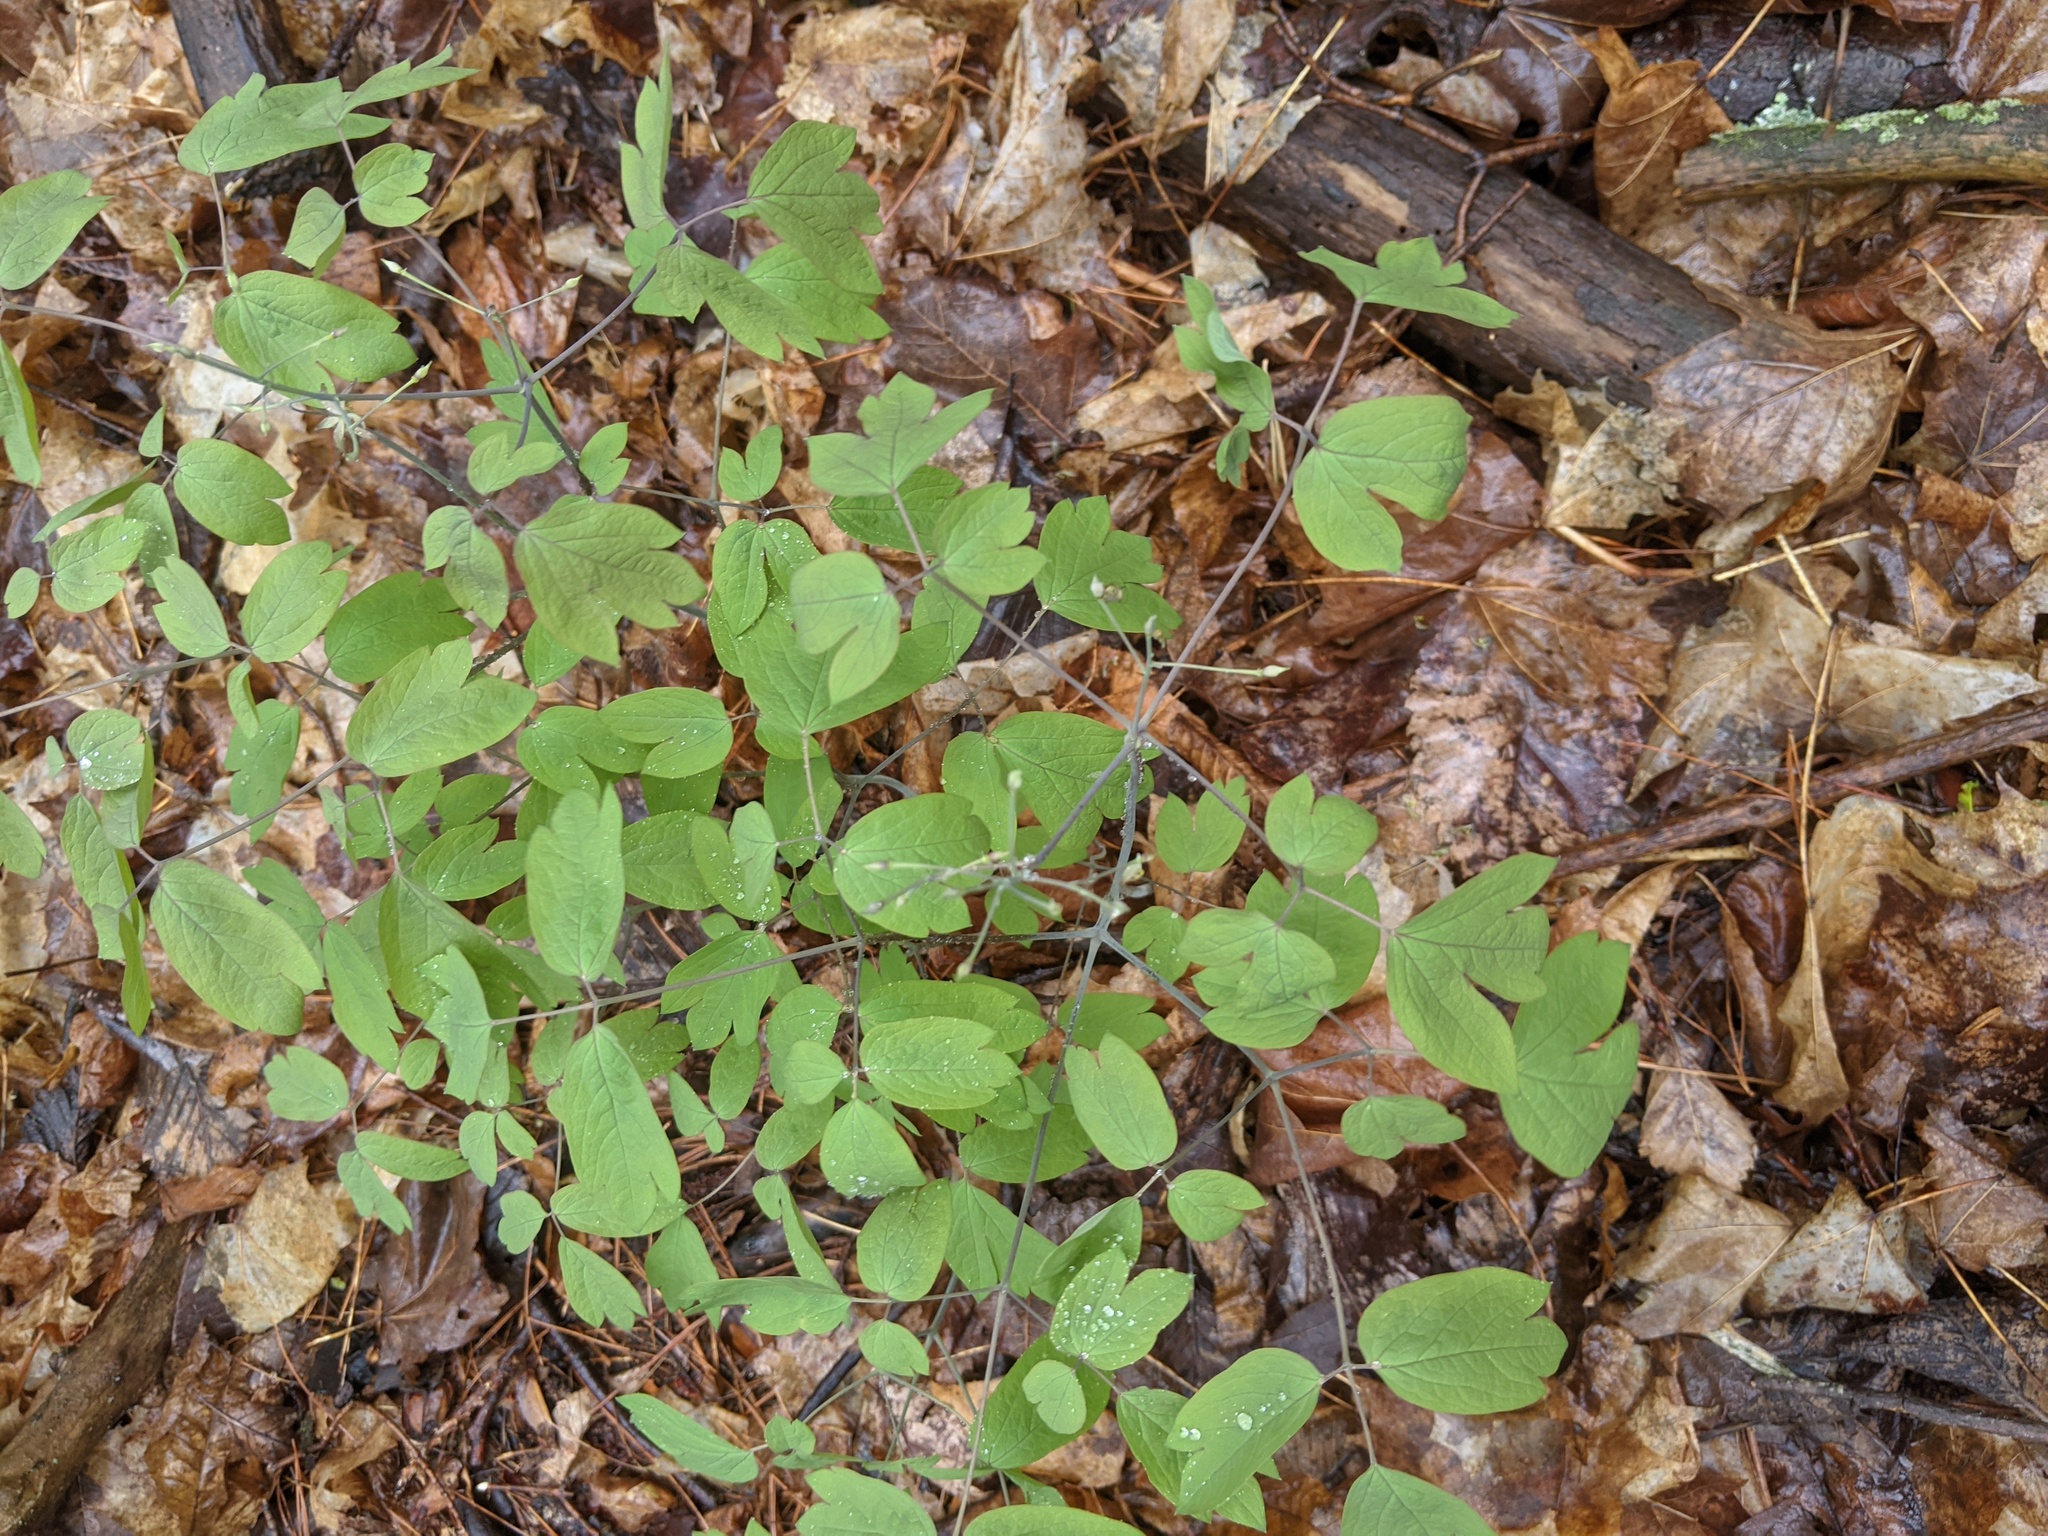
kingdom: Plantae
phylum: Tracheophyta
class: Magnoliopsida
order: Ranunculales
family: Berberidaceae
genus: Caulophyllum
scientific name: Caulophyllum thalictroides
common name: Blue cohosh
